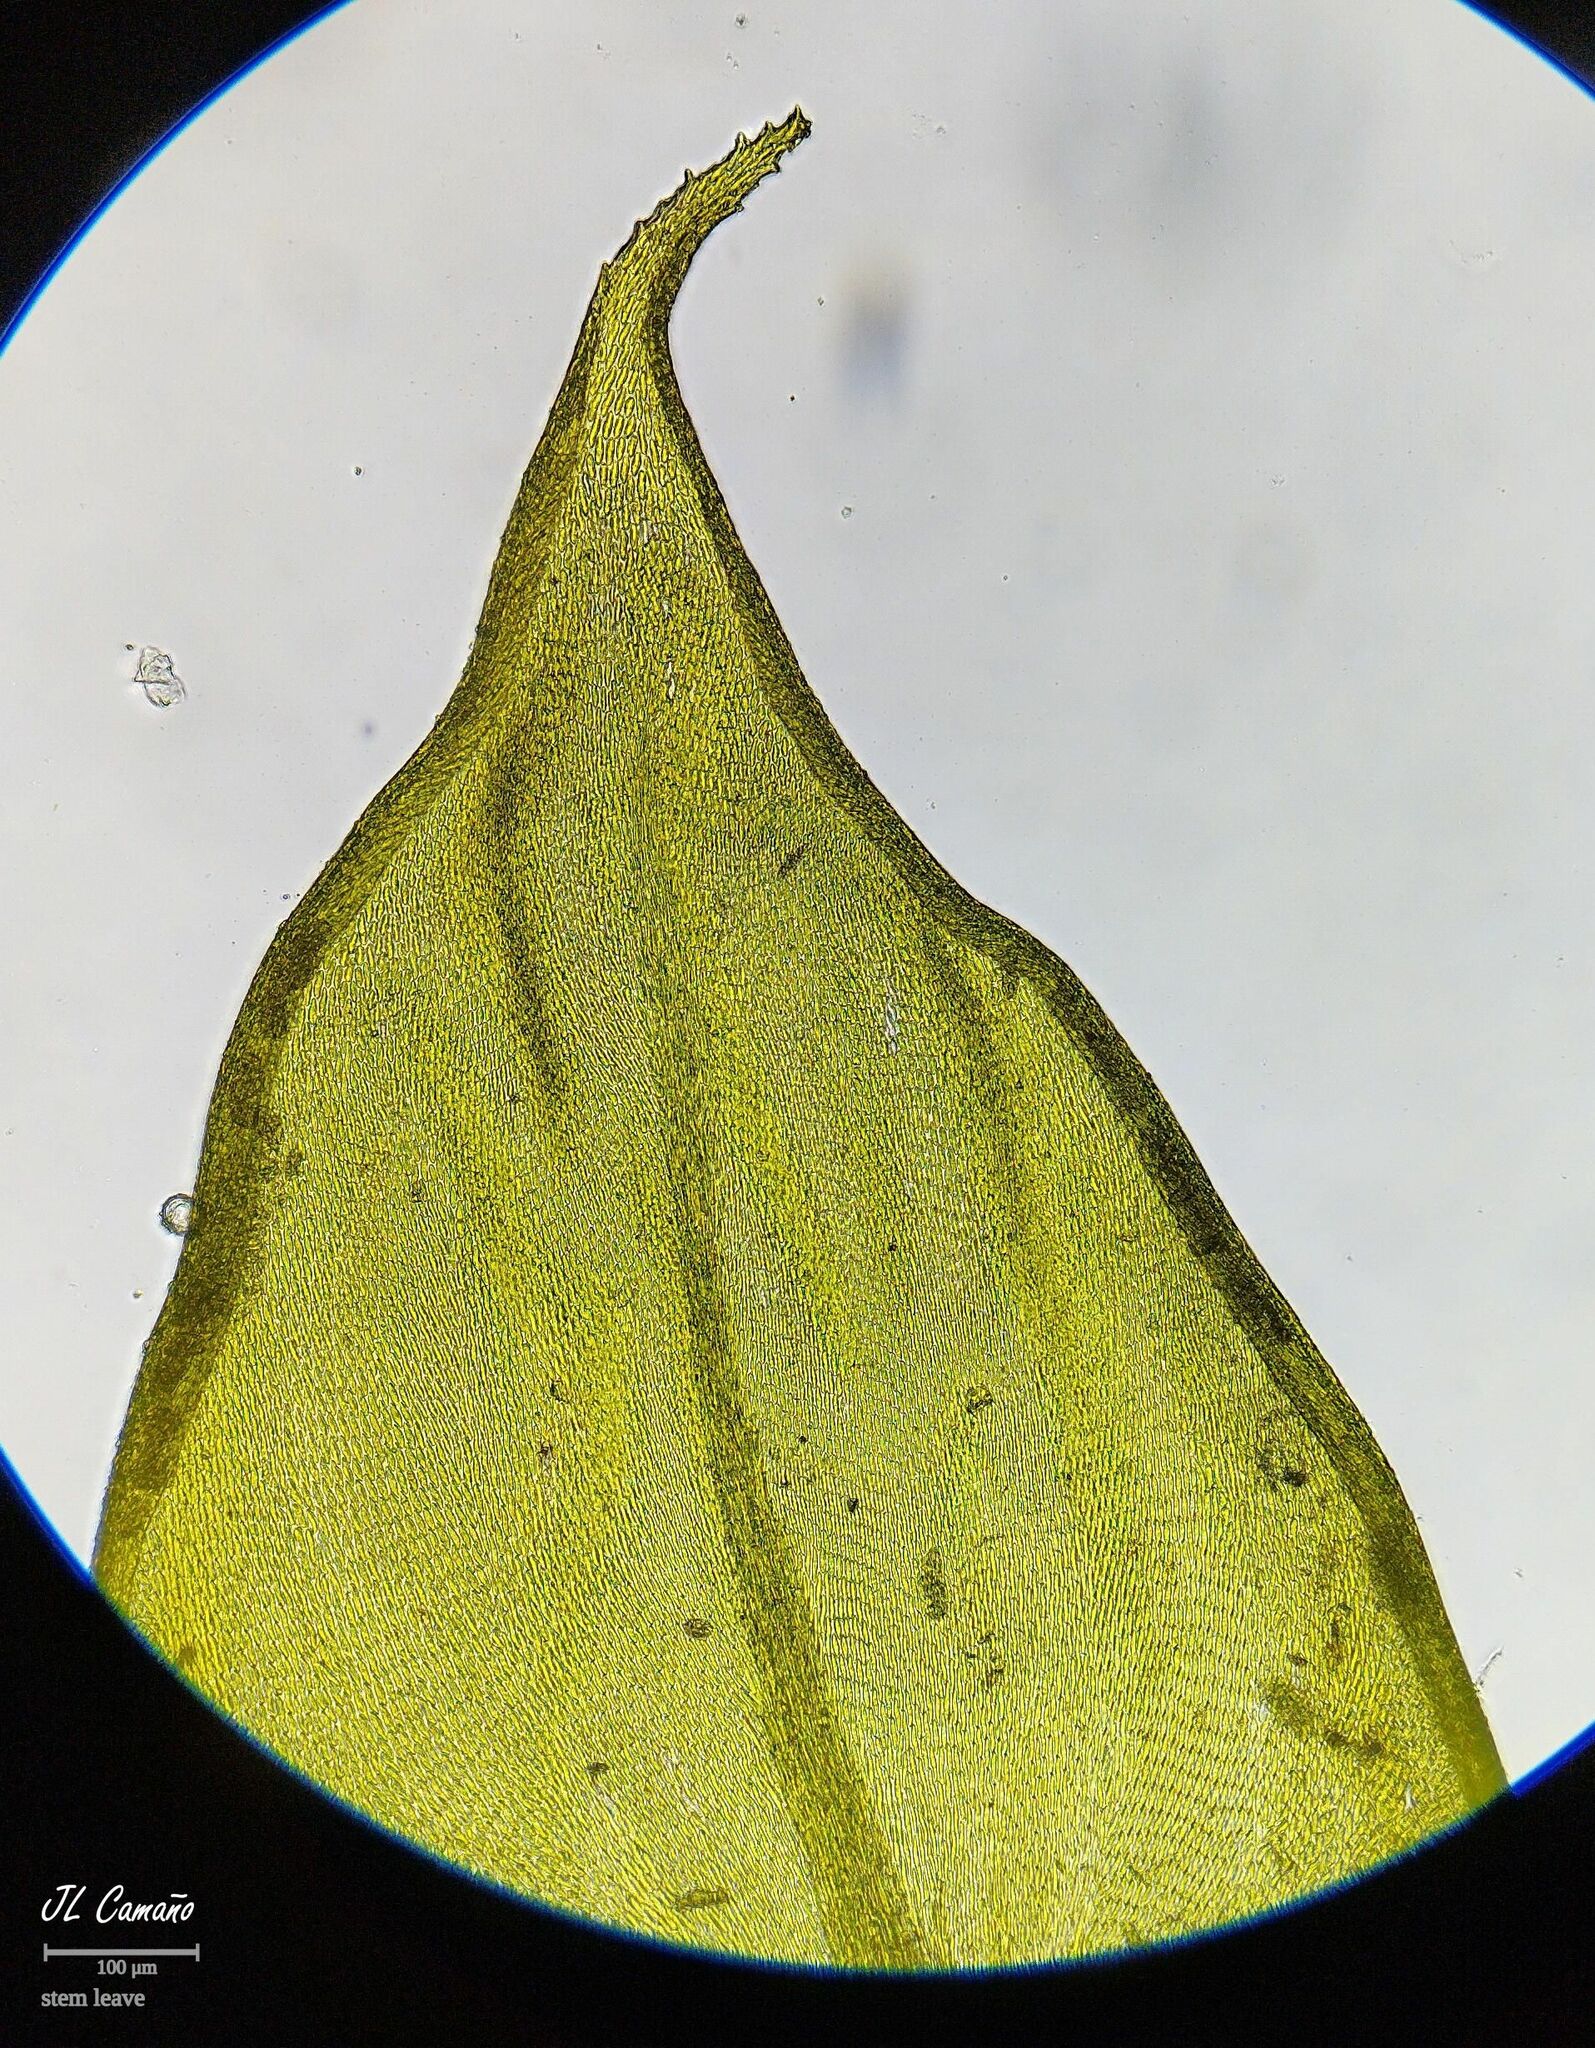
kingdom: Plantae
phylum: Bryophyta
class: Bryopsida
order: Hypnales
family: Antitrichiaceae
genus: Antitrichia
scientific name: Antitrichia curtipendula
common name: Pendulous wing-moss
